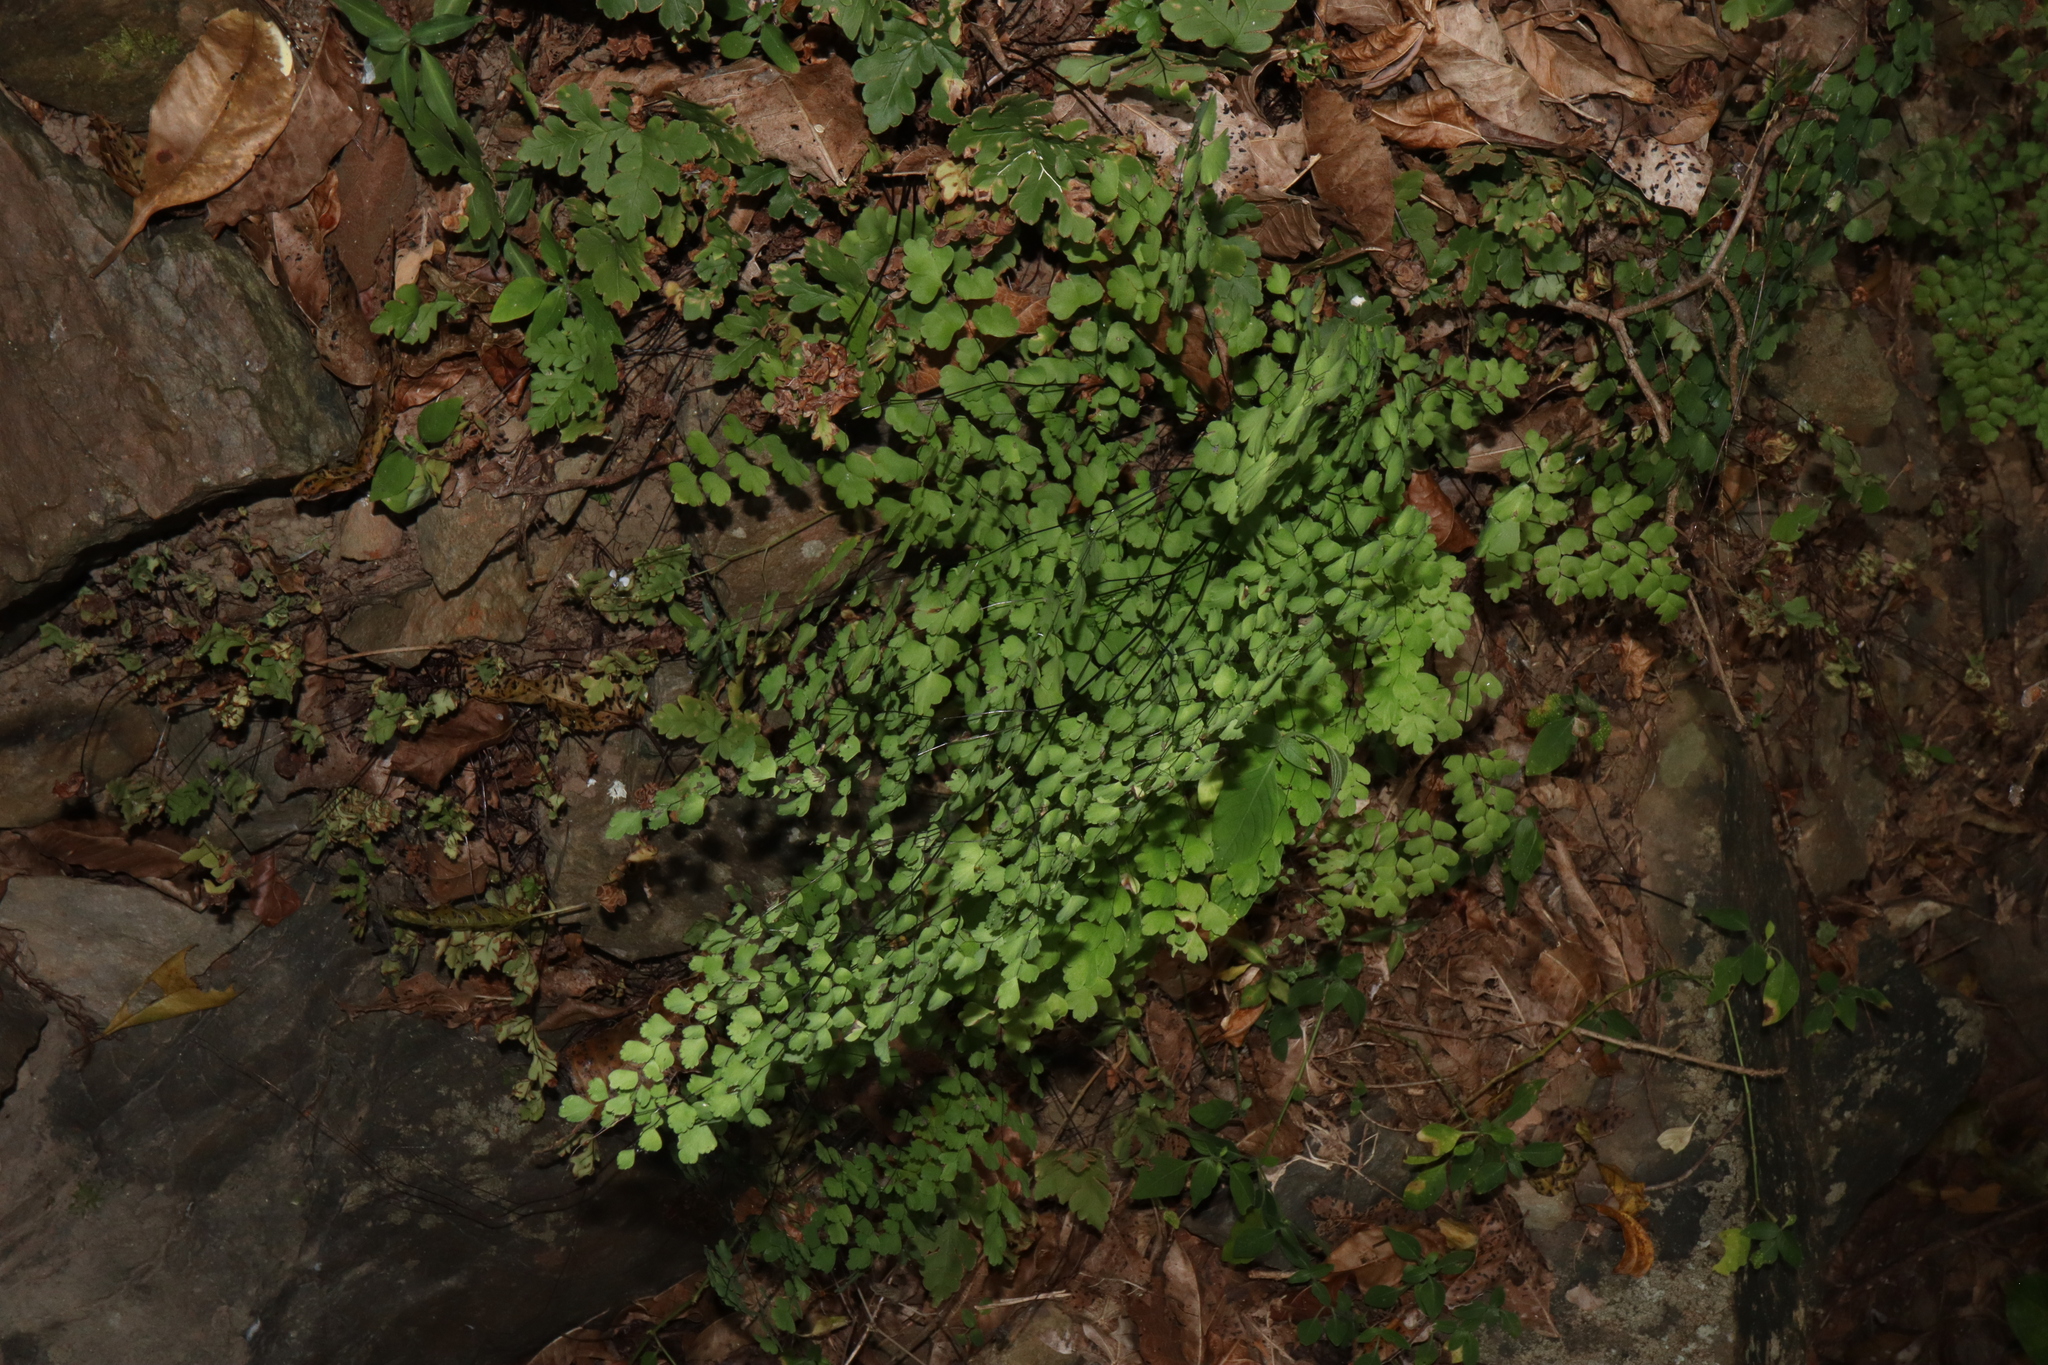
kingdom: Plantae
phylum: Tracheophyta
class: Polypodiopsida
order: Polypodiales
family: Pteridaceae
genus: Adiantum
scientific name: Adiantum atroviride
